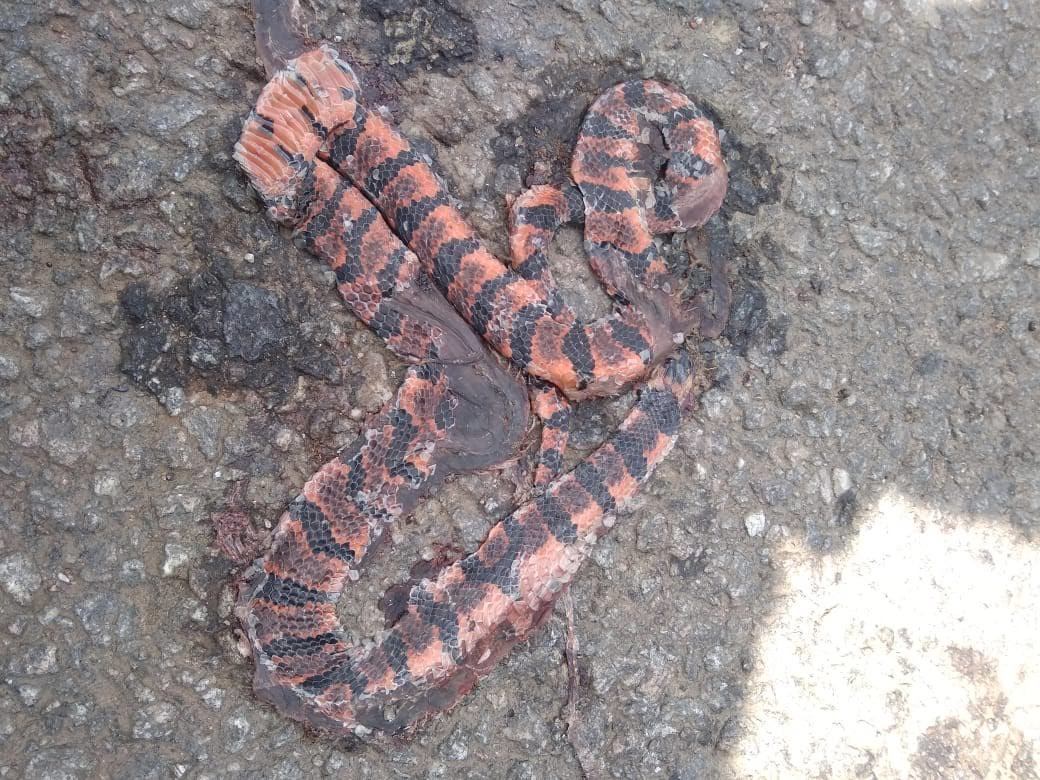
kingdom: Animalia
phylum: Chordata
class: Squamata
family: Elapidae
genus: Calliophis
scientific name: Calliophis bibroni
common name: Bibron's coral snake
